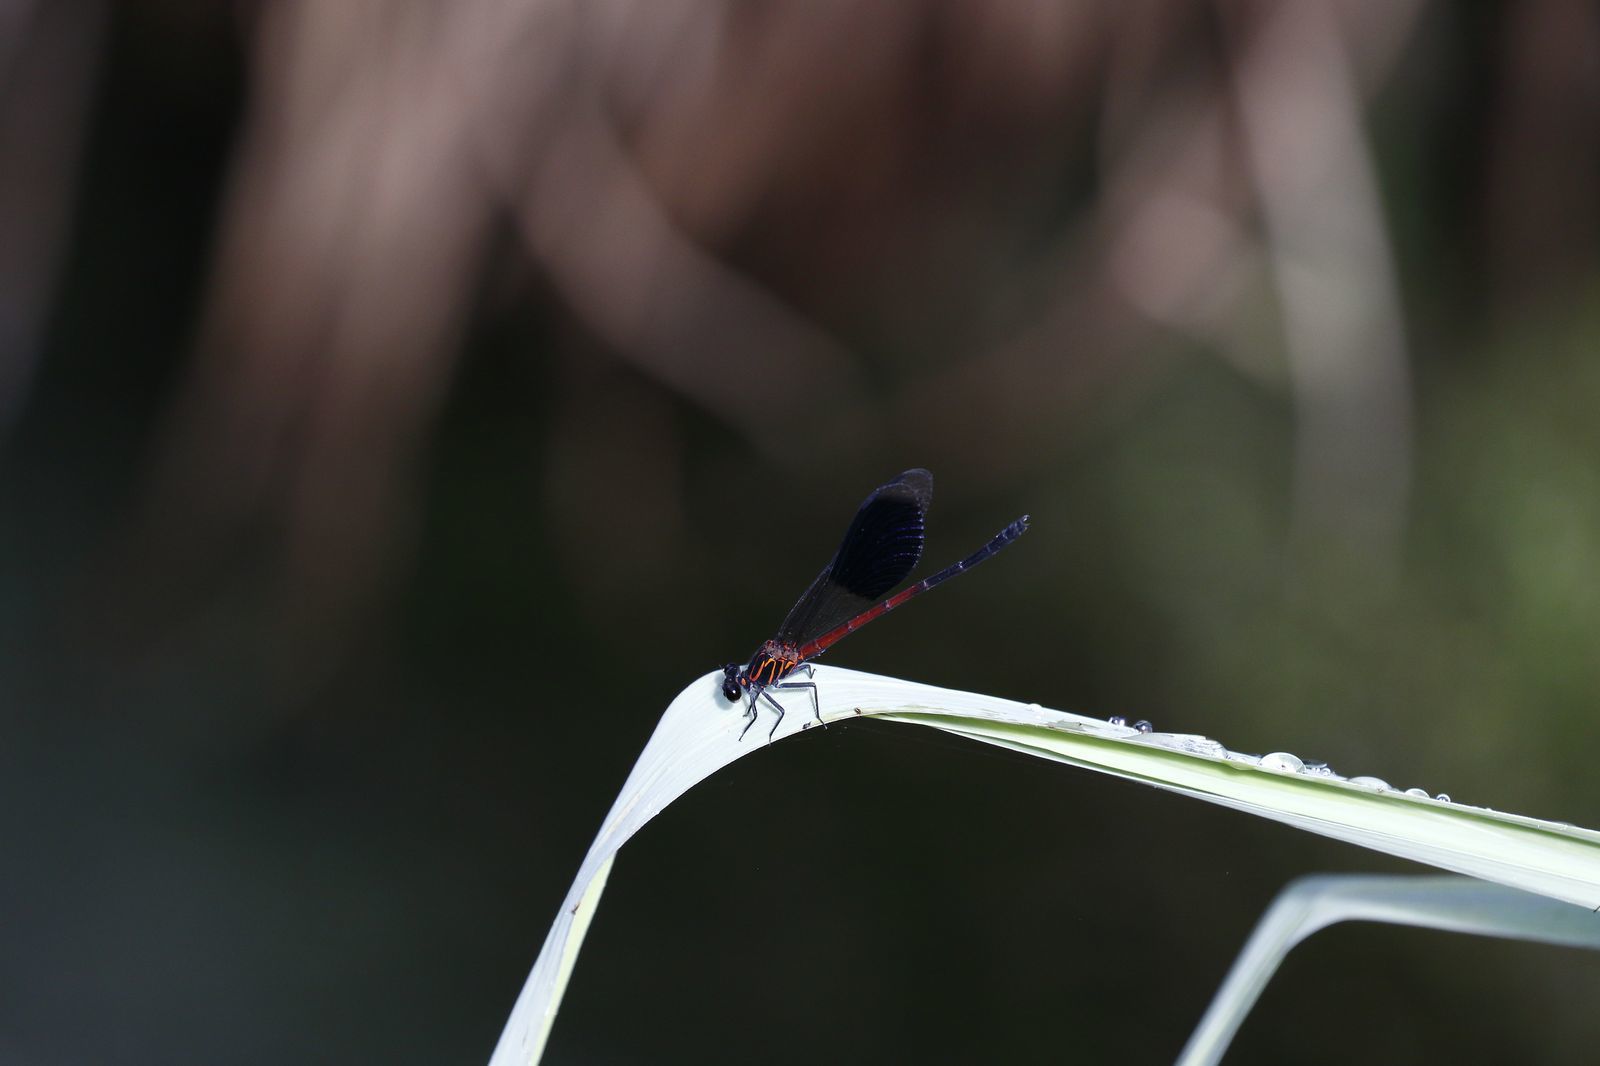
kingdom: Animalia
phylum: Arthropoda
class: Insecta
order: Odonata
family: Euphaeidae
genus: Euphaea
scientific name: Euphaea formosa
